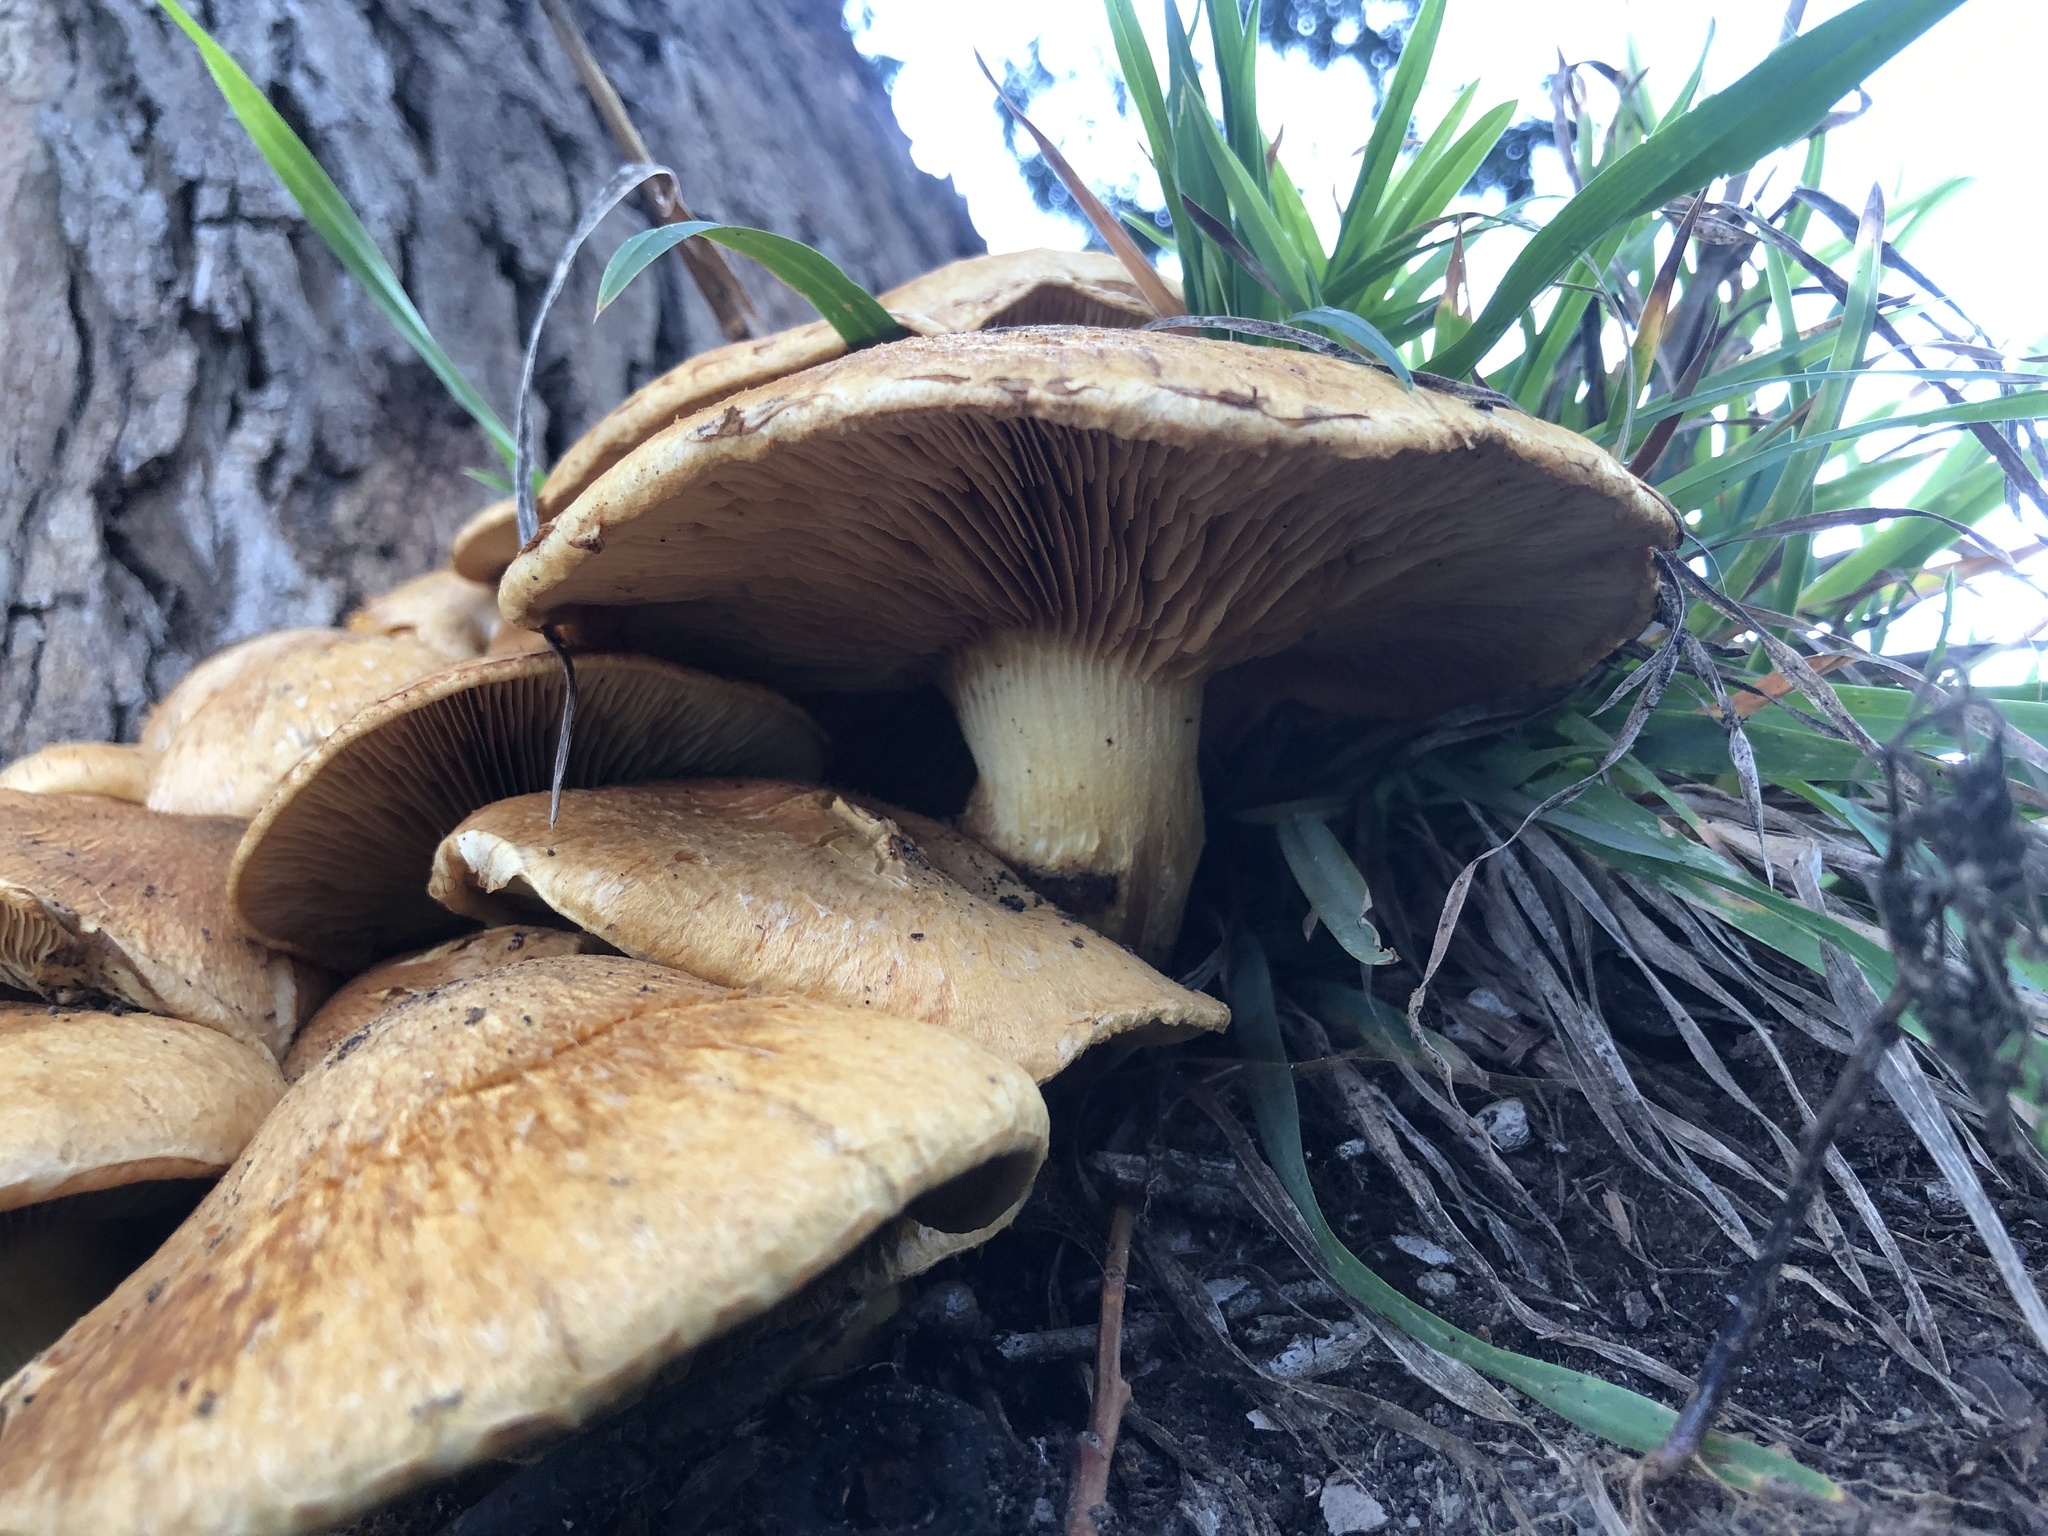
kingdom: Fungi
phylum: Basidiomycota
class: Agaricomycetes
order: Agaricales
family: Hymenogastraceae
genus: Gymnopilus
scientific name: Gymnopilus junonius
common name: Spectacular rustgill
